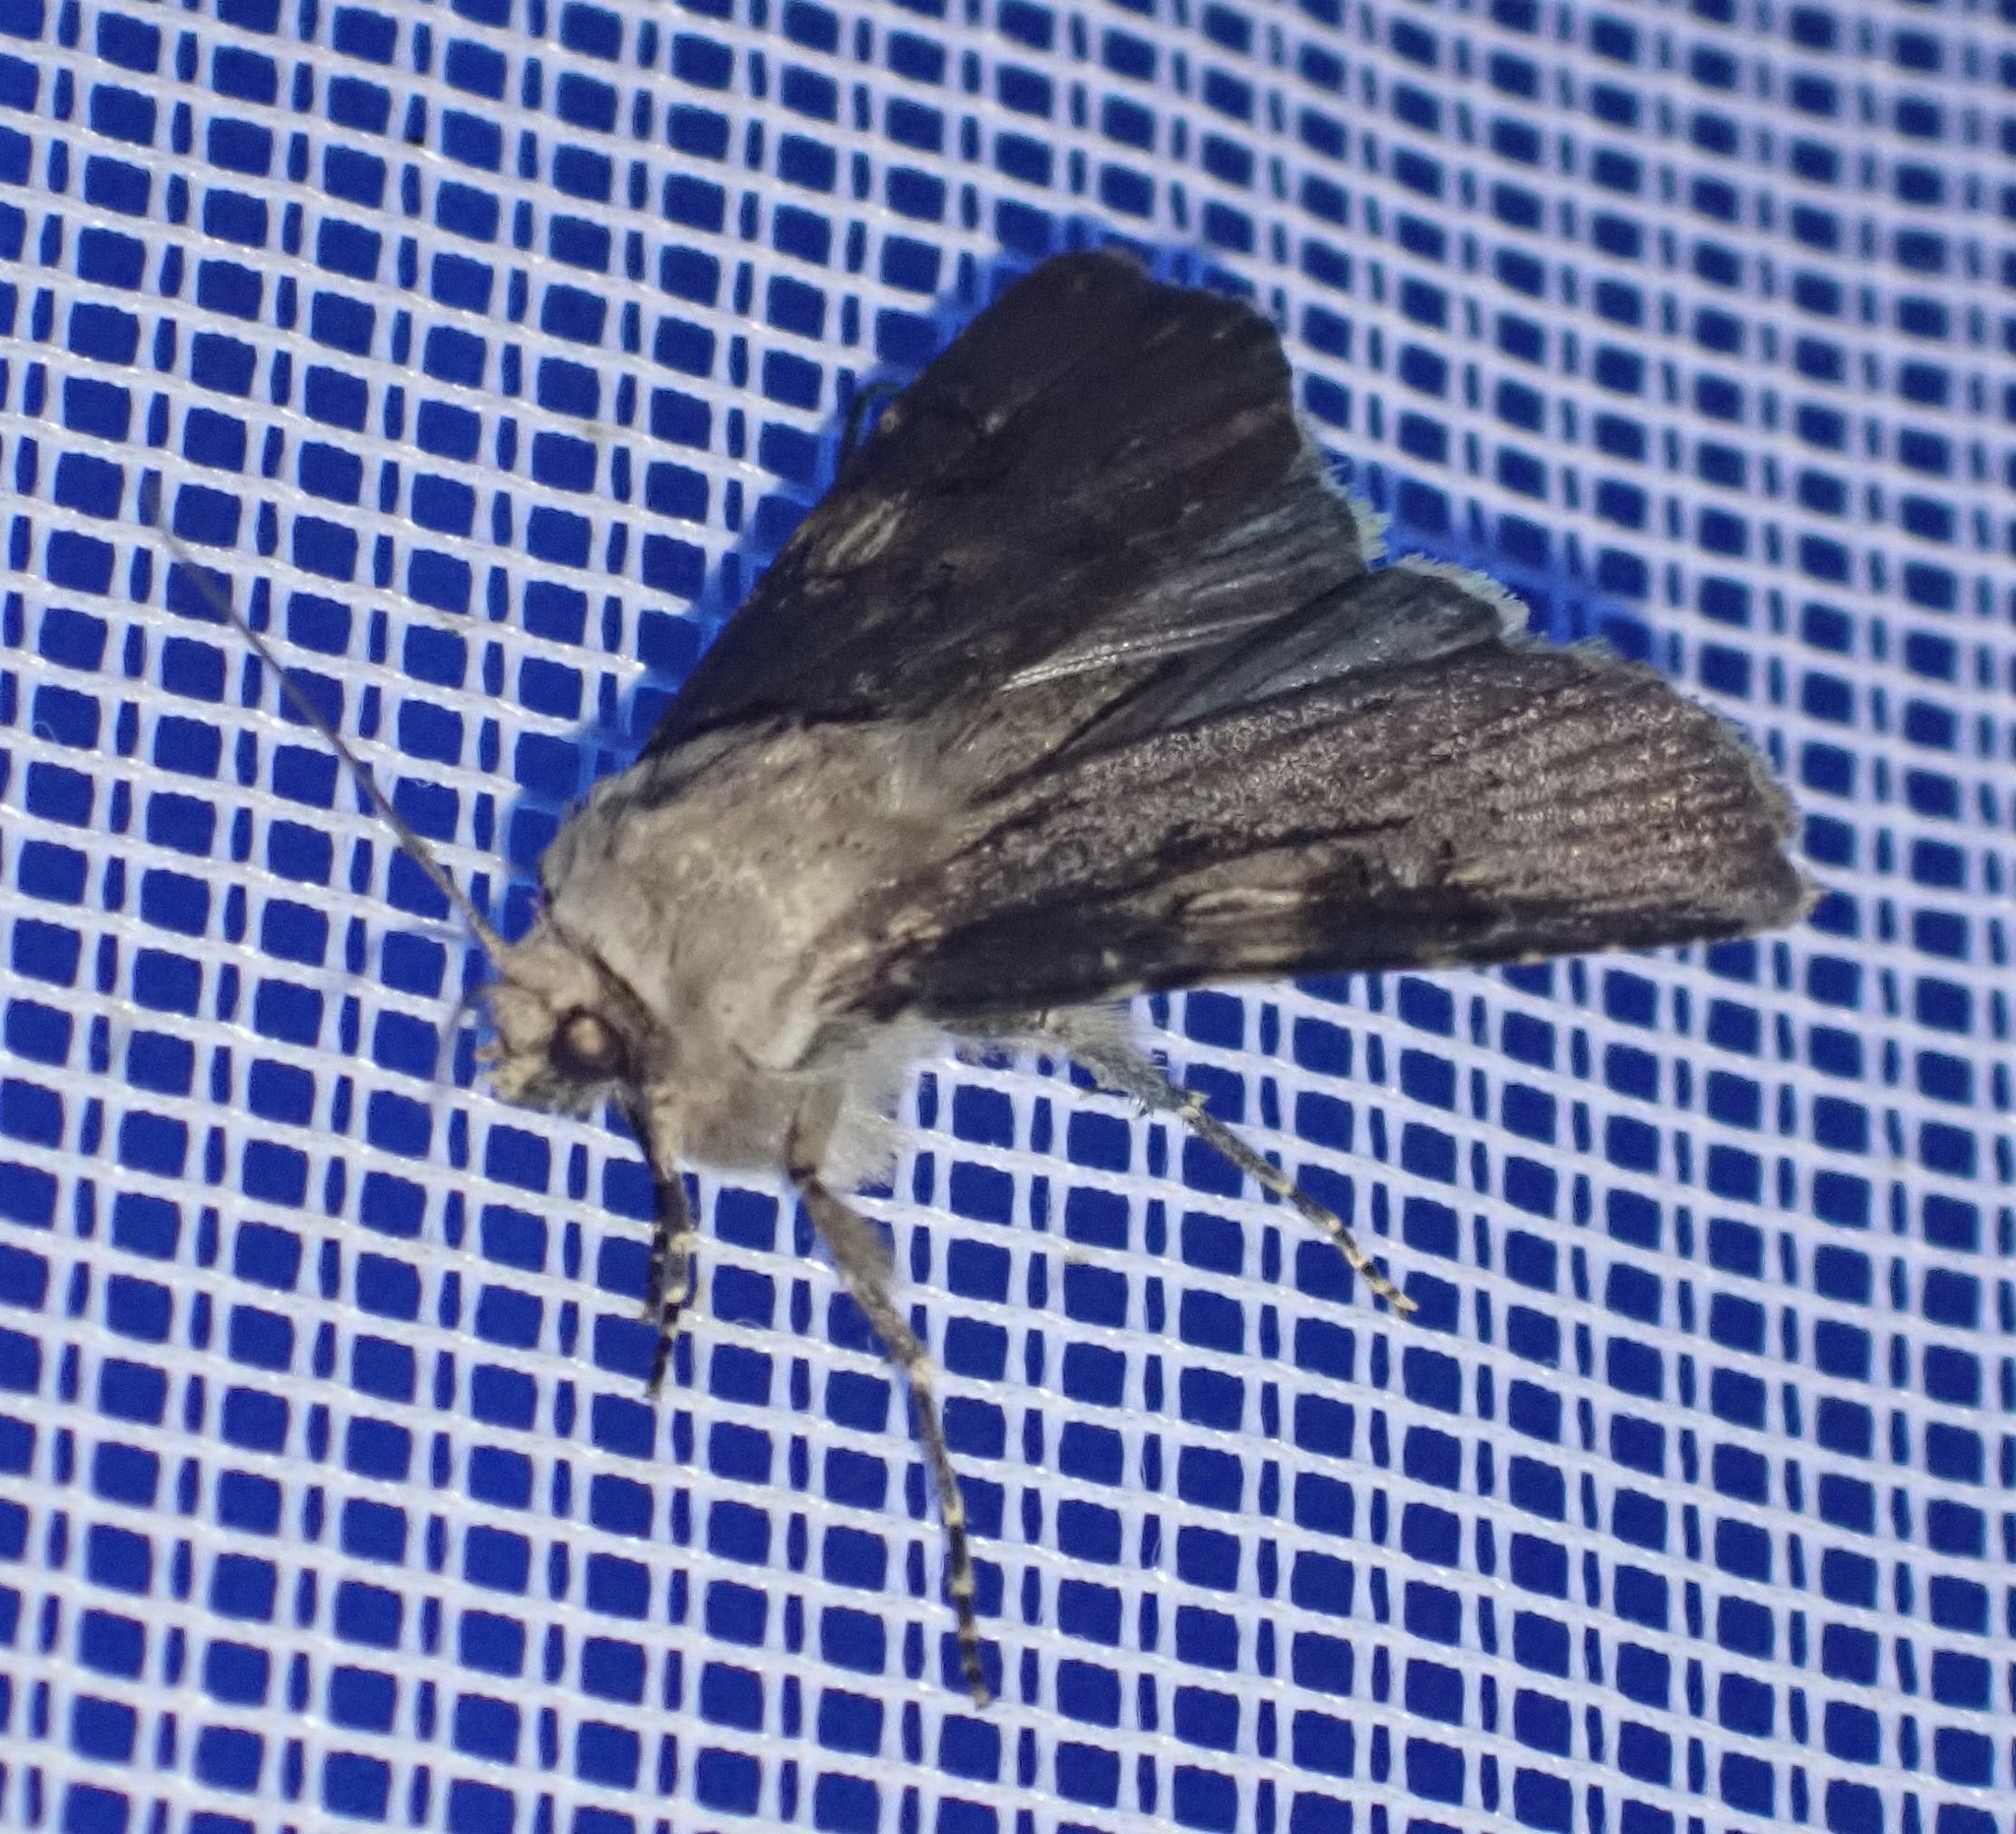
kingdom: Animalia
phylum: Arthropoda
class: Insecta
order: Lepidoptera
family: Noctuidae
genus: Agrotis
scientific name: Agrotis puta
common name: Shuttle-shaped dart
